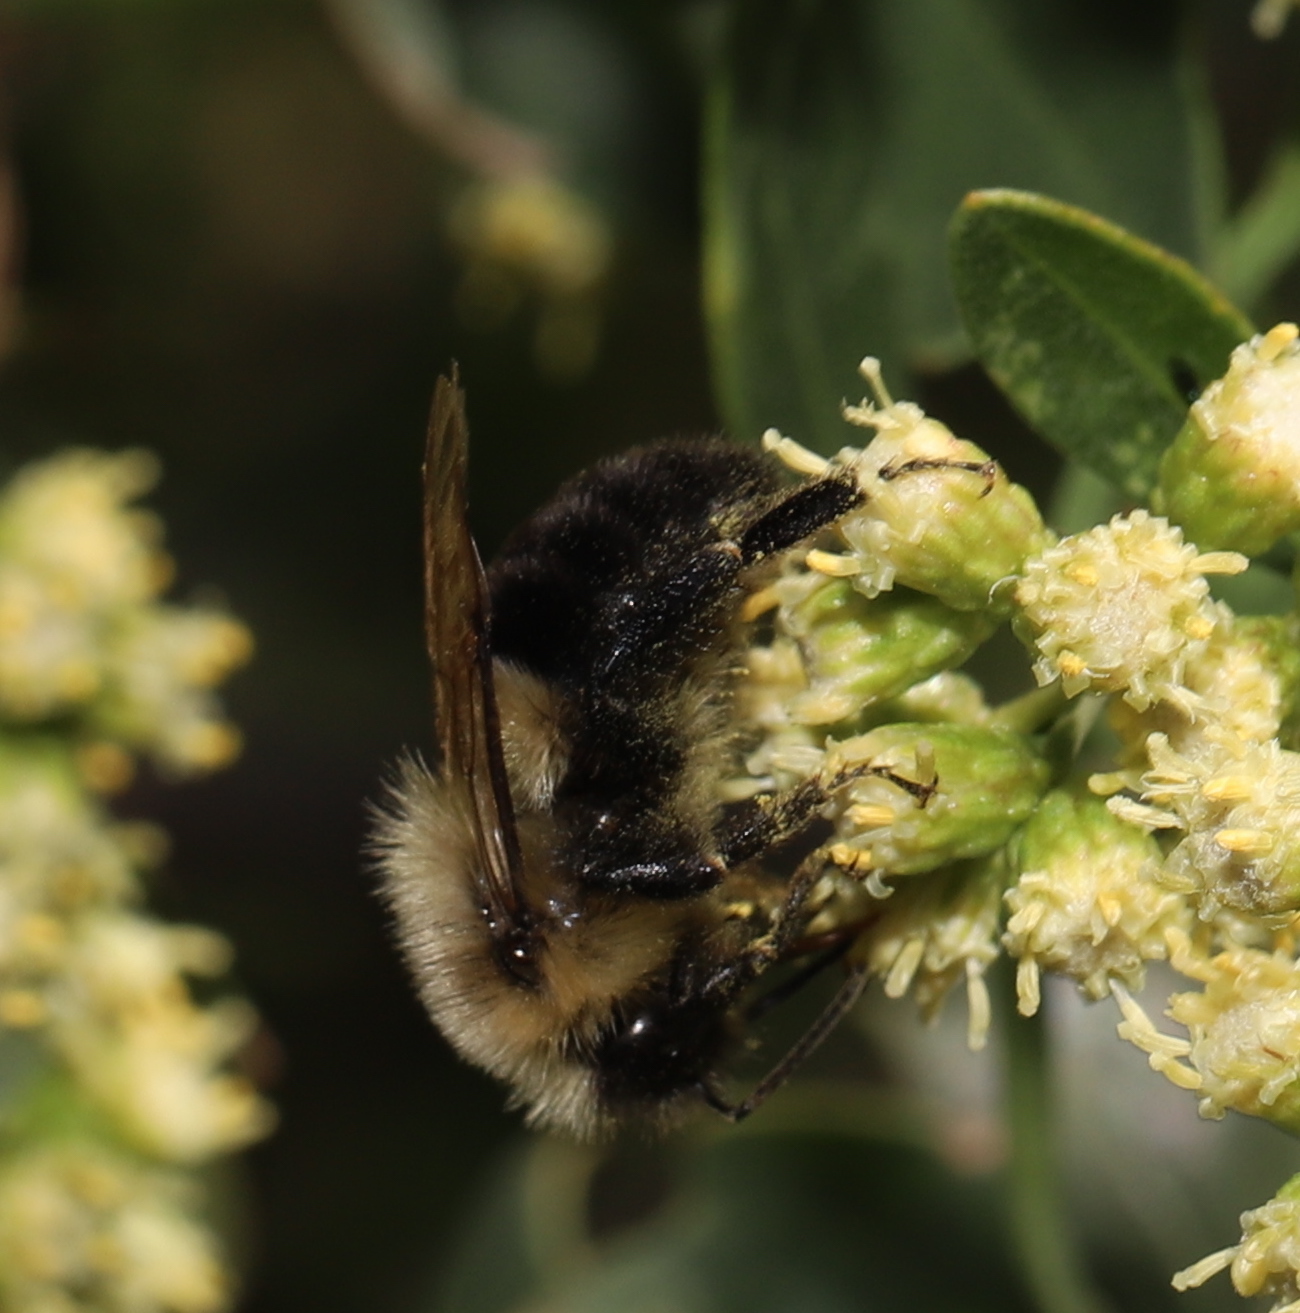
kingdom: Animalia
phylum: Arthropoda
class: Insecta
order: Hymenoptera
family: Apidae
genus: Bombus
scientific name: Bombus impatiens
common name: Common eastern bumble bee
